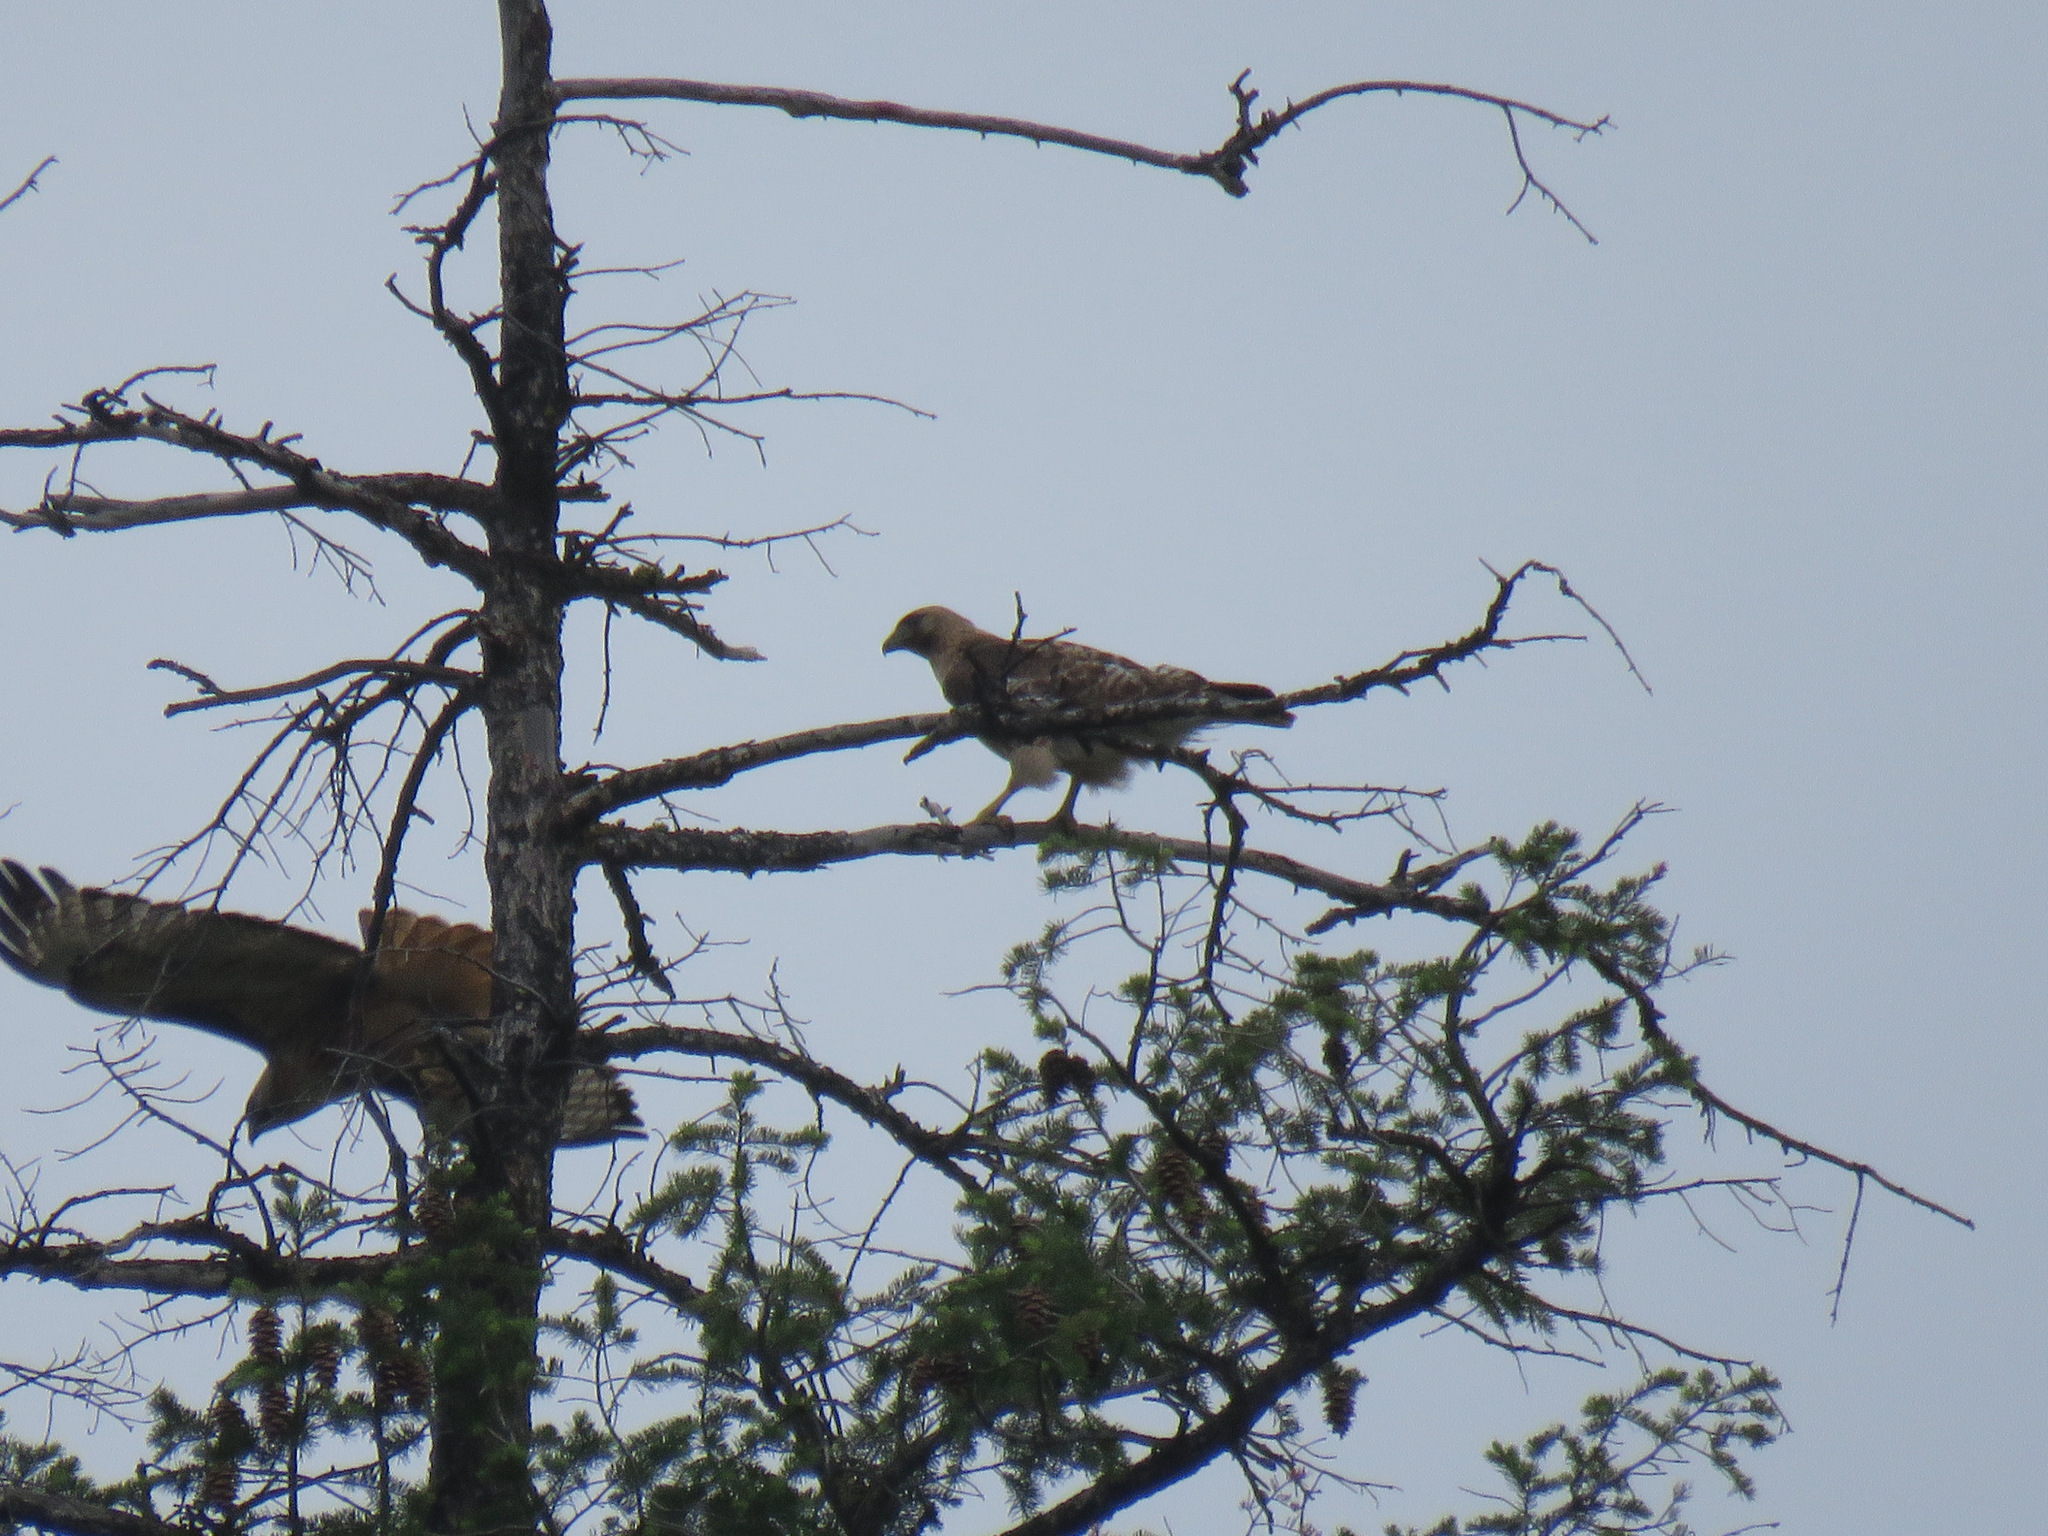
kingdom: Animalia
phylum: Chordata
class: Aves
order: Accipitriformes
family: Accipitridae
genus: Buteo
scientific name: Buteo jamaicensis
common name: Red-tailed hawk
